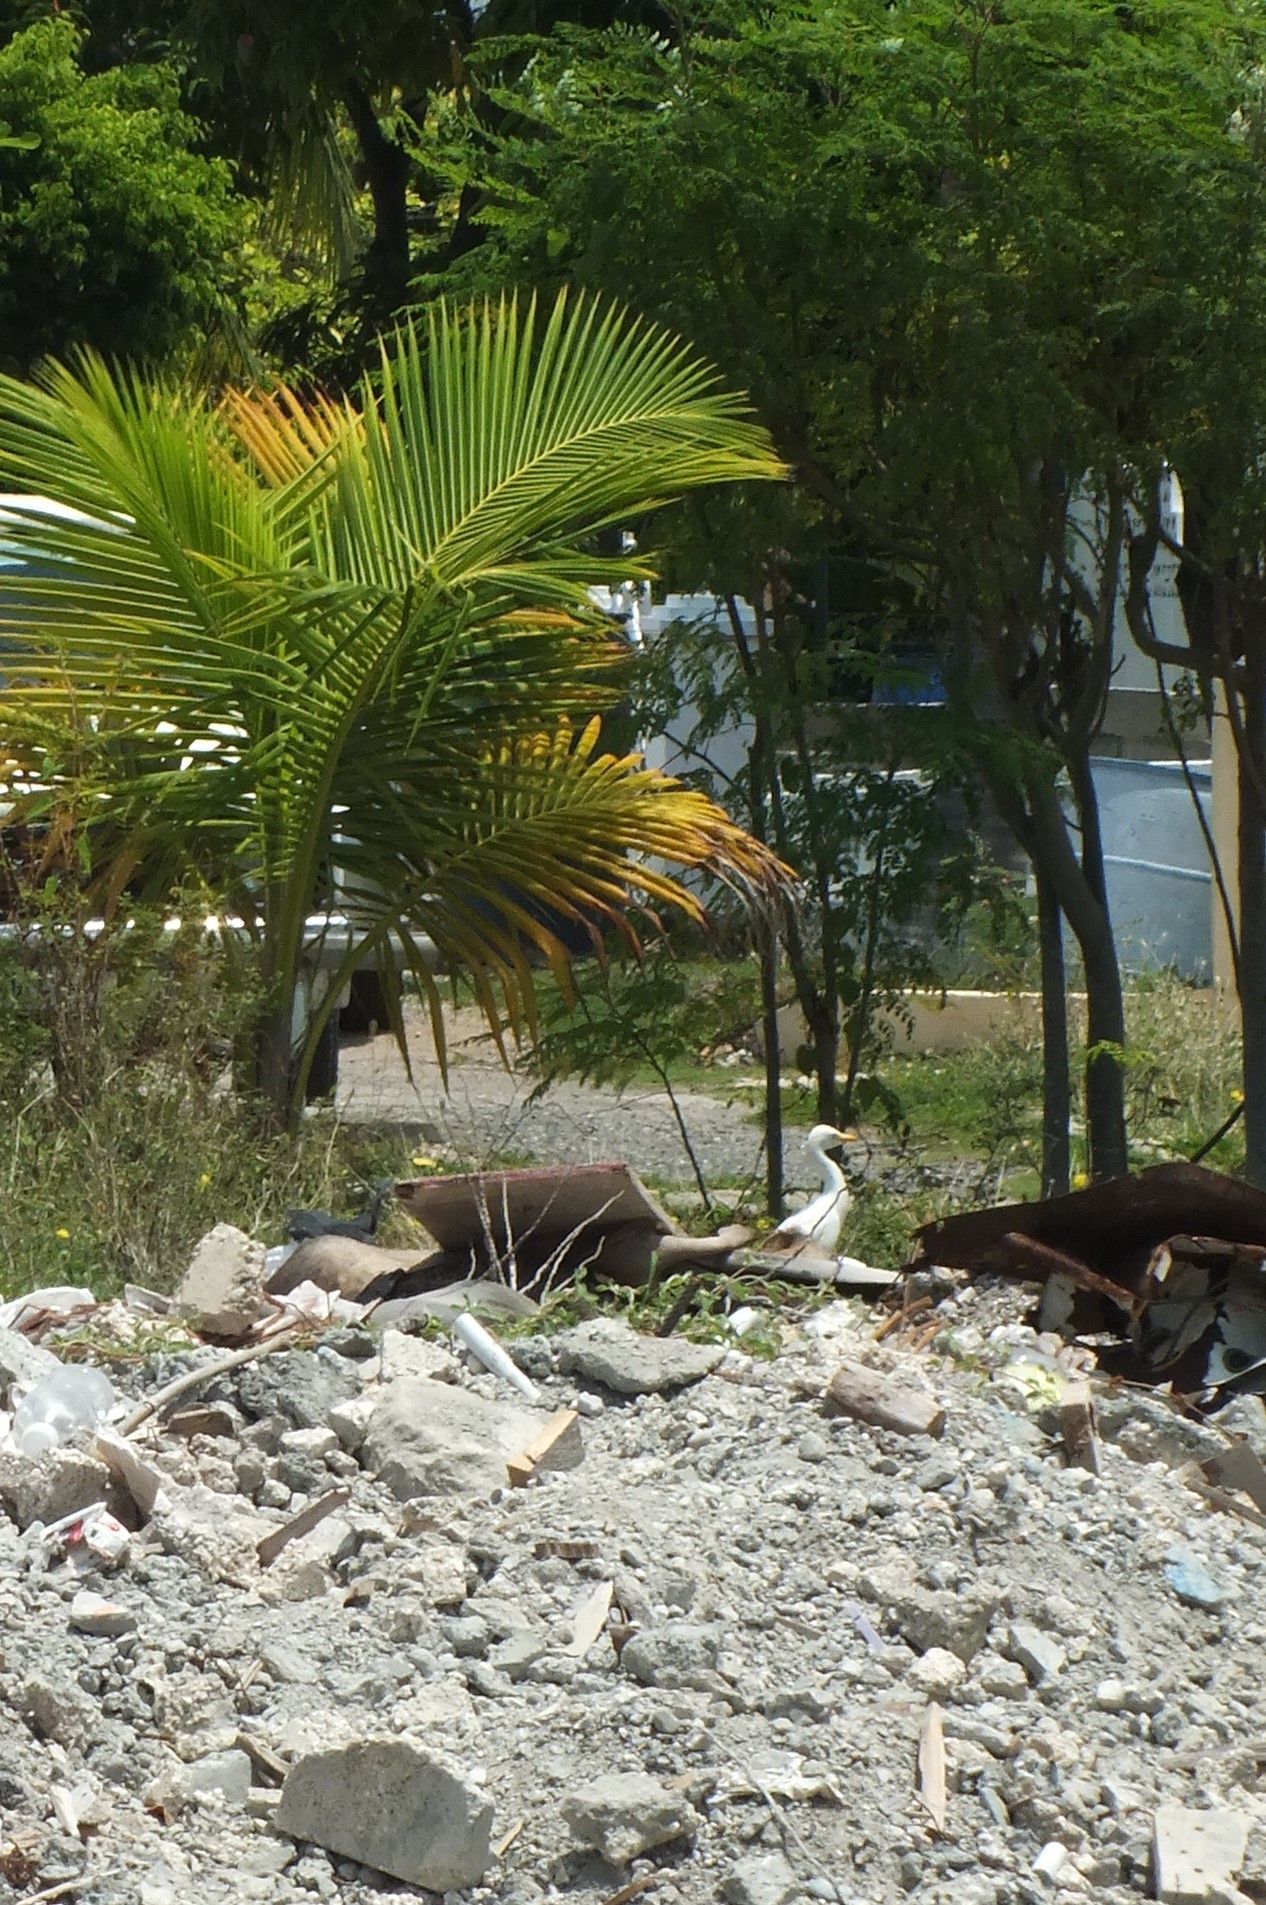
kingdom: Animalia
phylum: Chordata
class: Aves
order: Pelecaniformes
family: Ardeidae
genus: Bubulcus
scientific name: Bubulcus ibis
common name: Cattle egret
